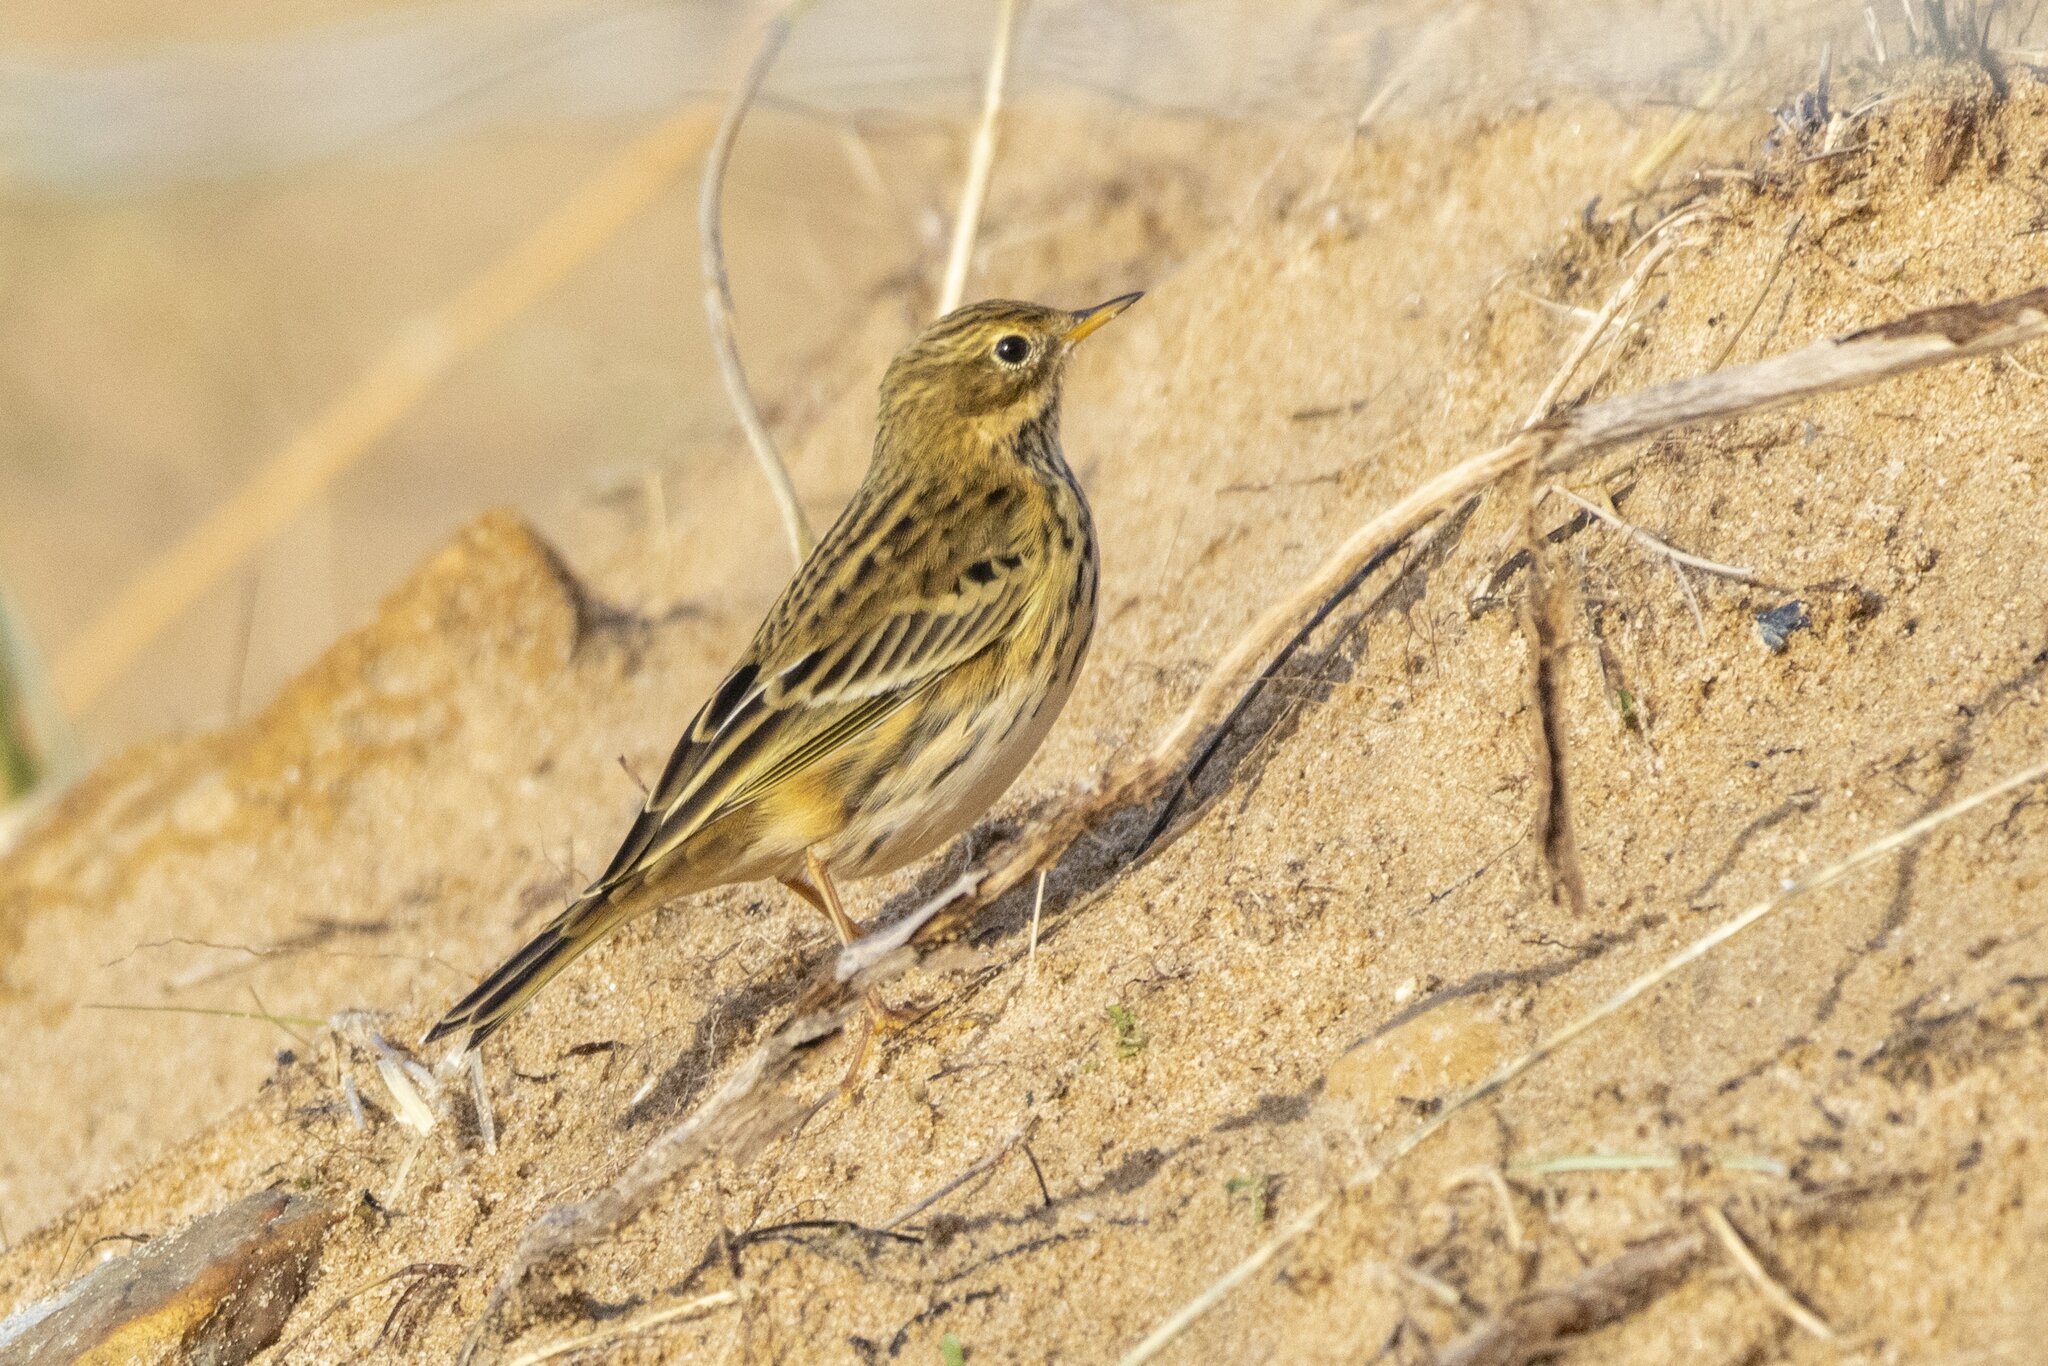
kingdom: Animalia
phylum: Chordata
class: Aves
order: Passeriformes
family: Motacillidae
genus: Anthus
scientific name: Anthus pratensis
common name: Meadow pipit
